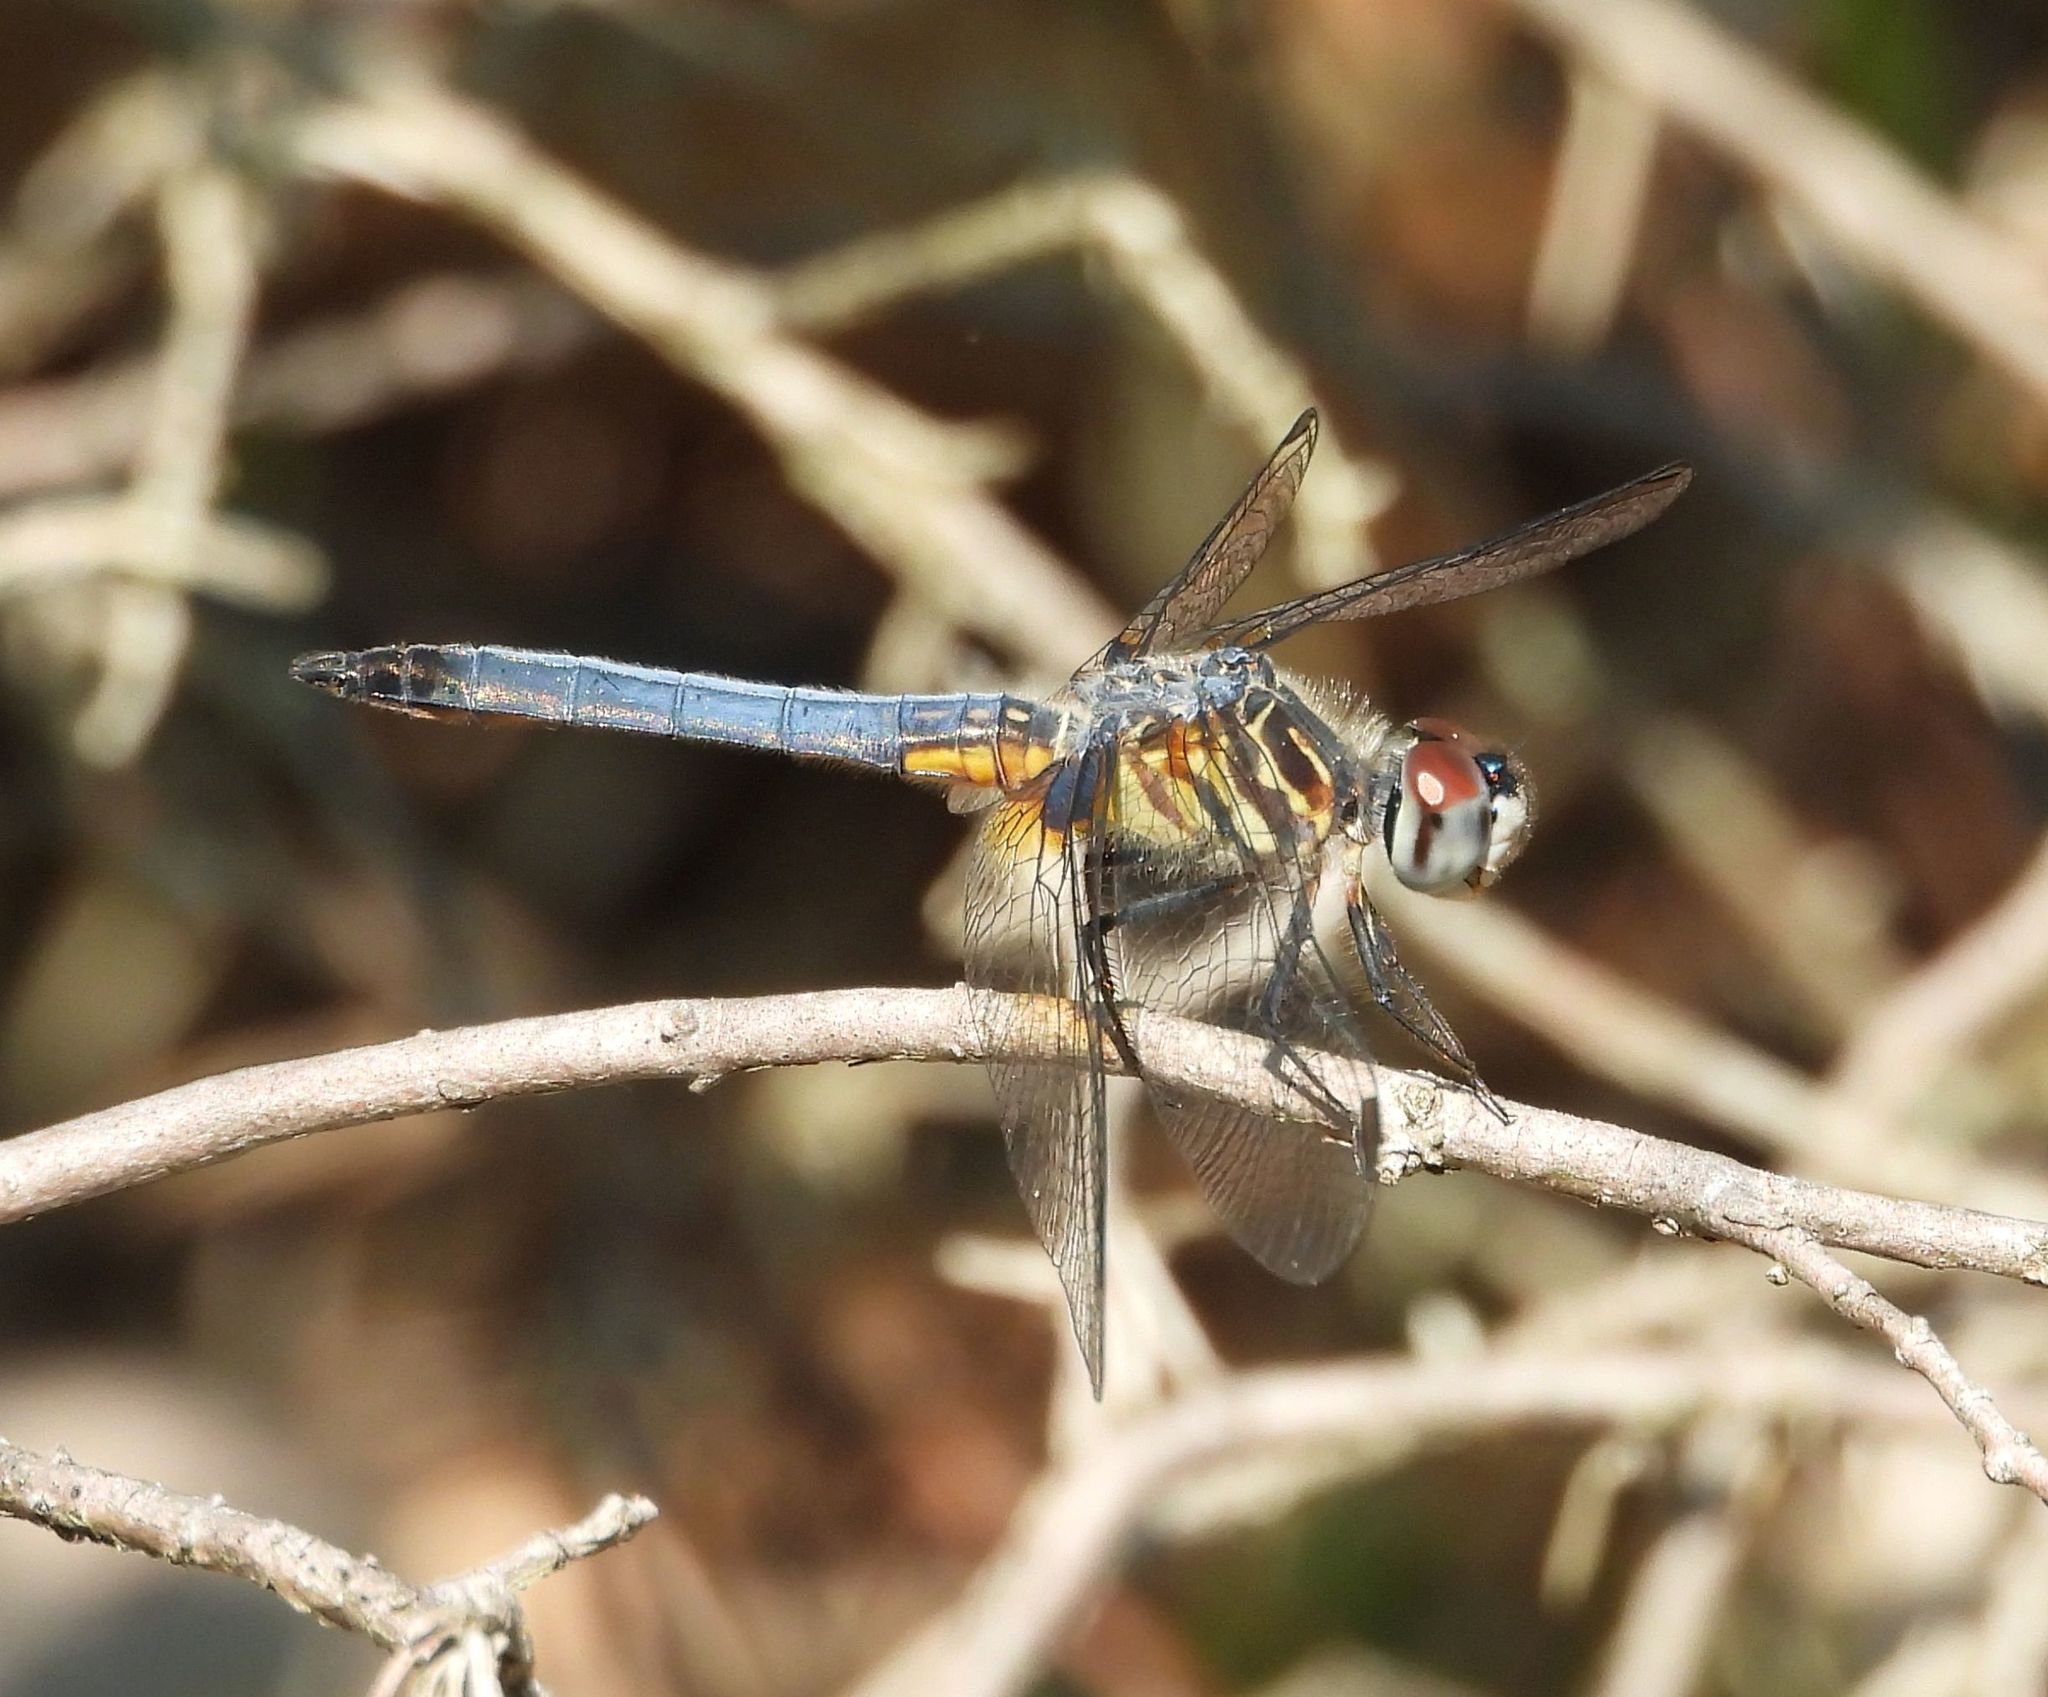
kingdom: Animalia
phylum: Arthropoda
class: Insecta
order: Odonata
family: Libellulidae
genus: Pachydiplax
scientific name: Pachydiplax longipennis
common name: Blue dasher
